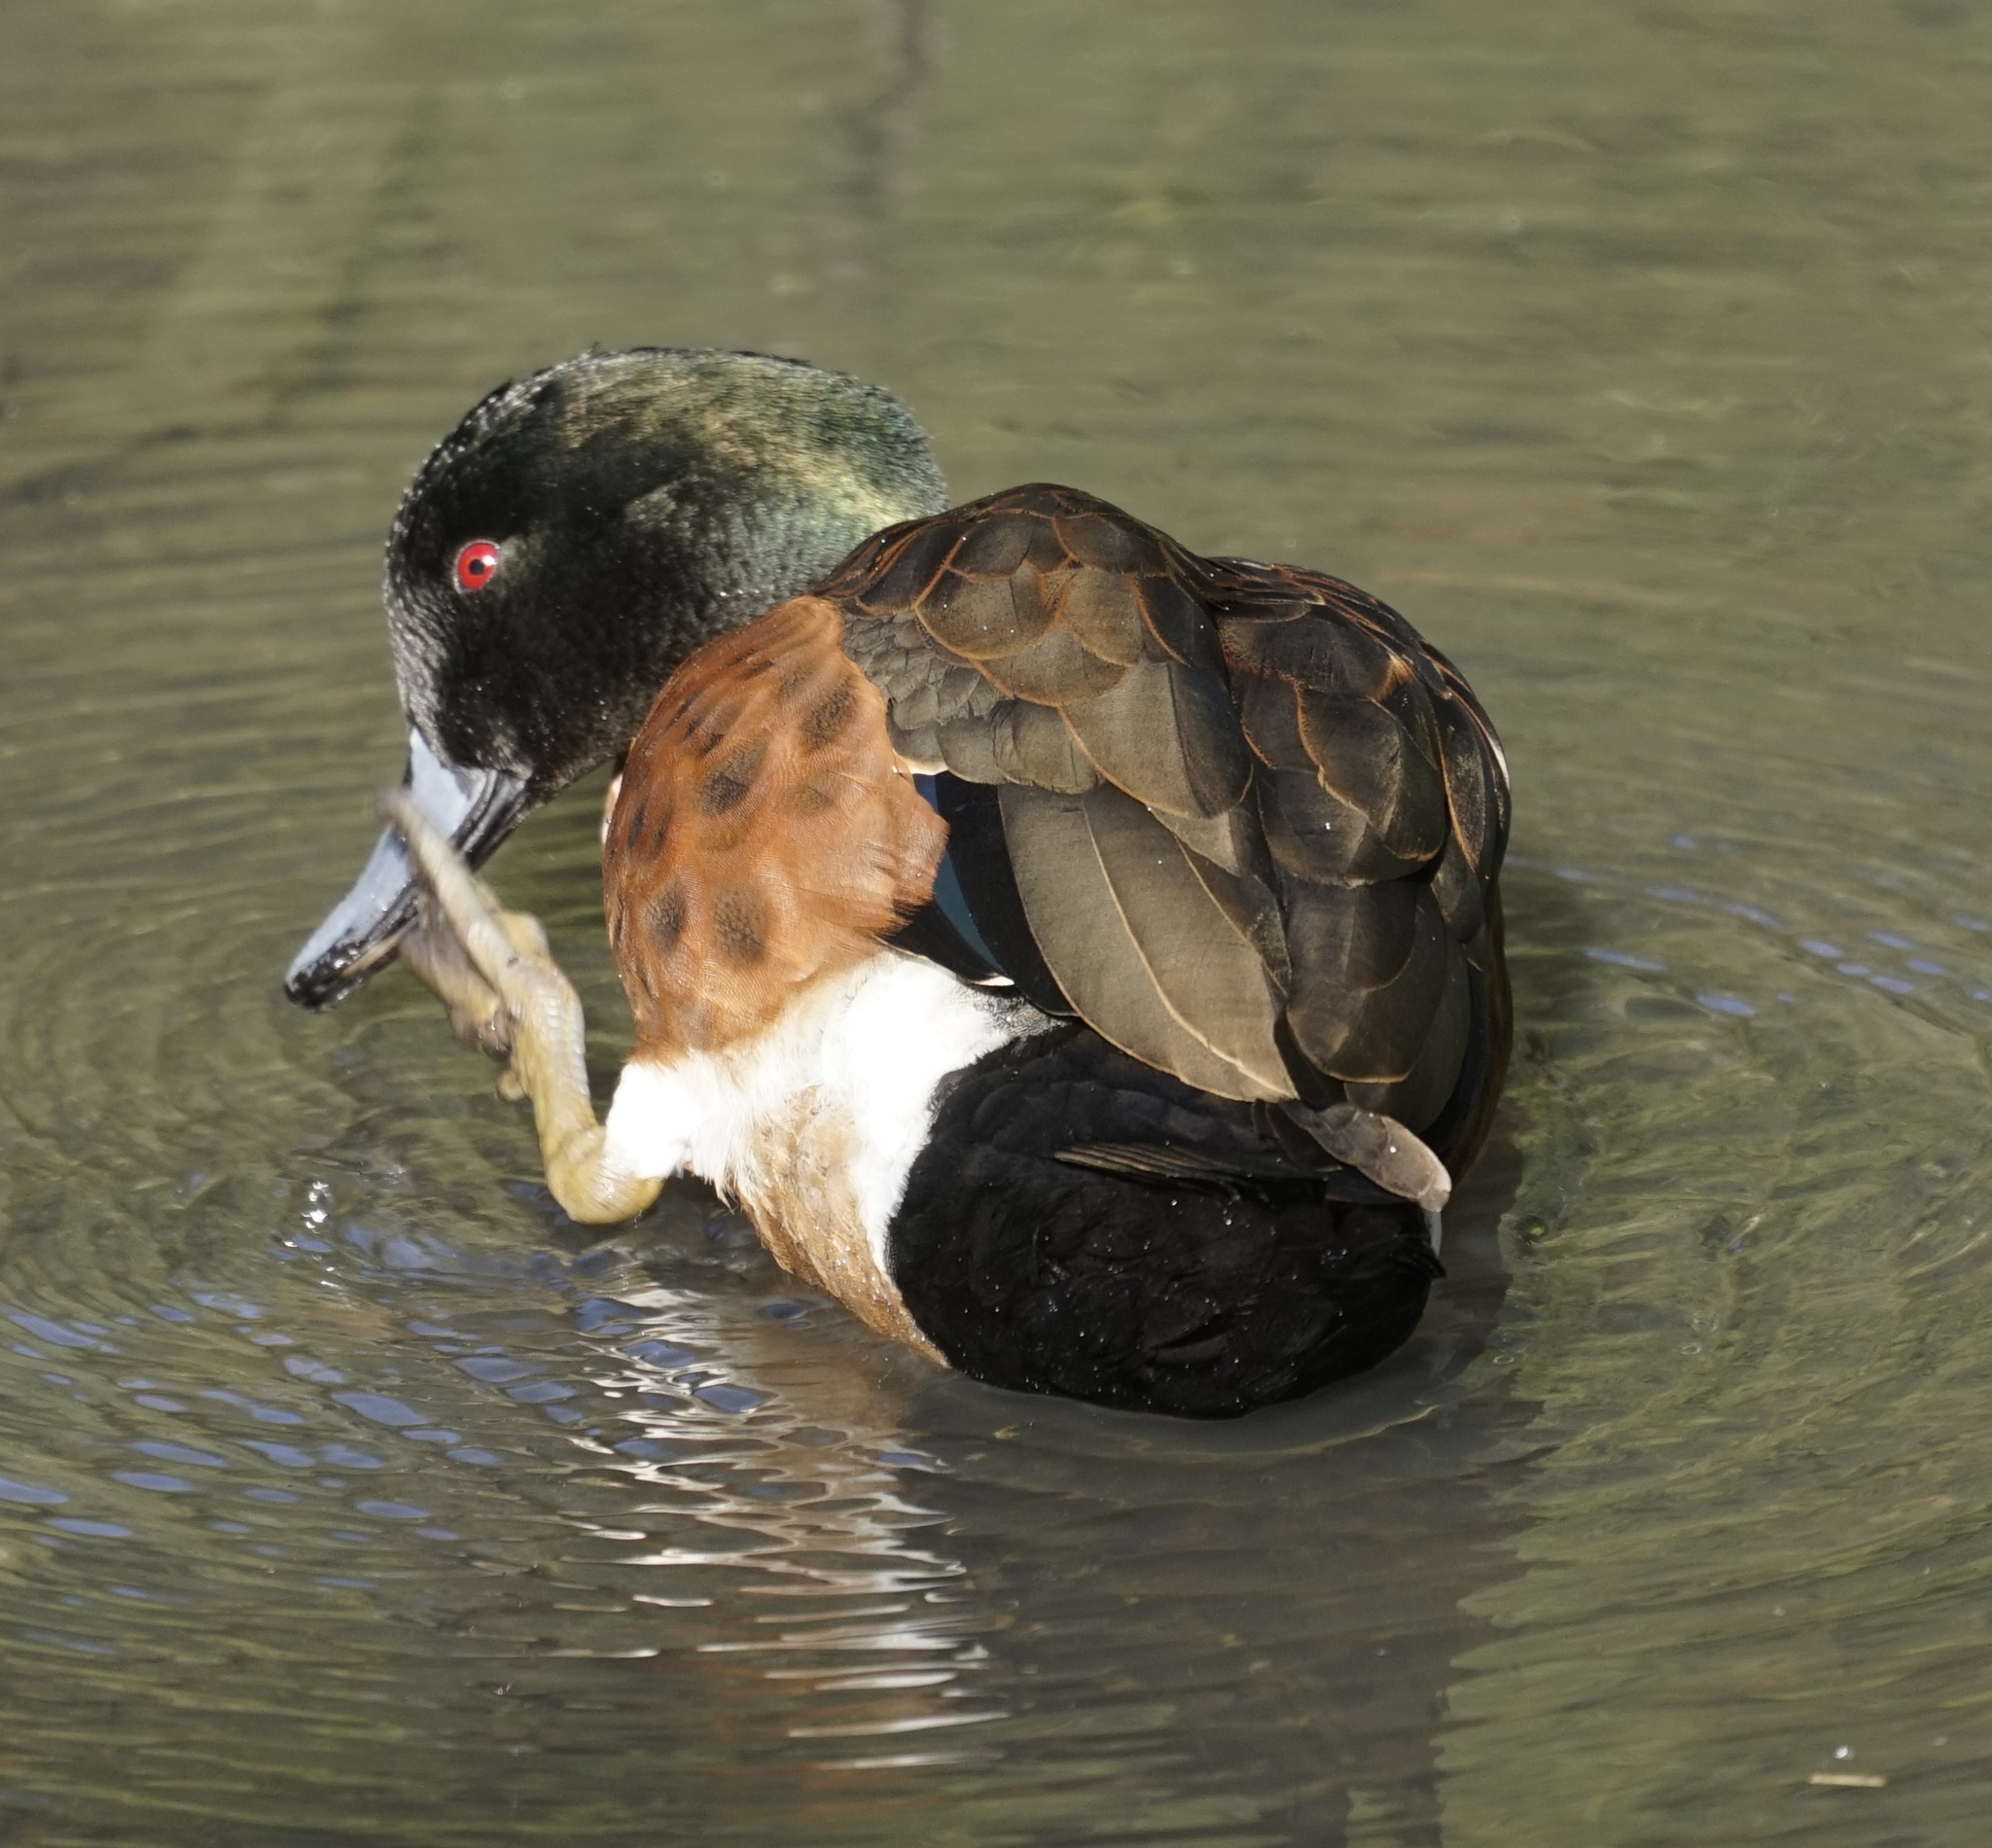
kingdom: Animalia
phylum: Chordata
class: Aves
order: Anseriformes
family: Anatidae
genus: Anas
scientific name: Anas castanea
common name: Chestnut teal
